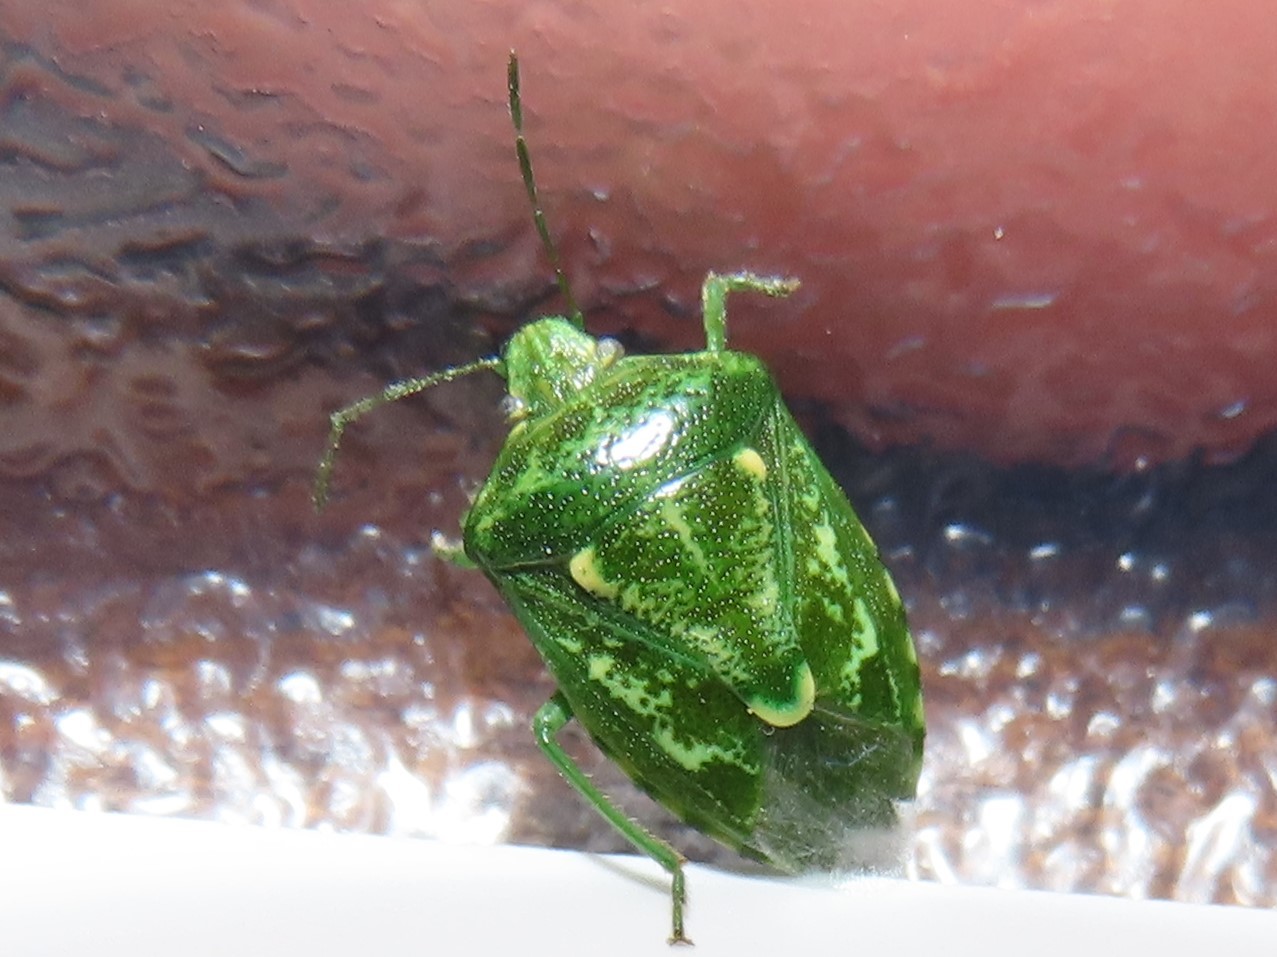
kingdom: Animalia
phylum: Arthropoda
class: Insecta
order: Hemiptera
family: Pentatomidae
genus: Banasa
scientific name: Banasa euchlora
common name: Cedar berry bug
